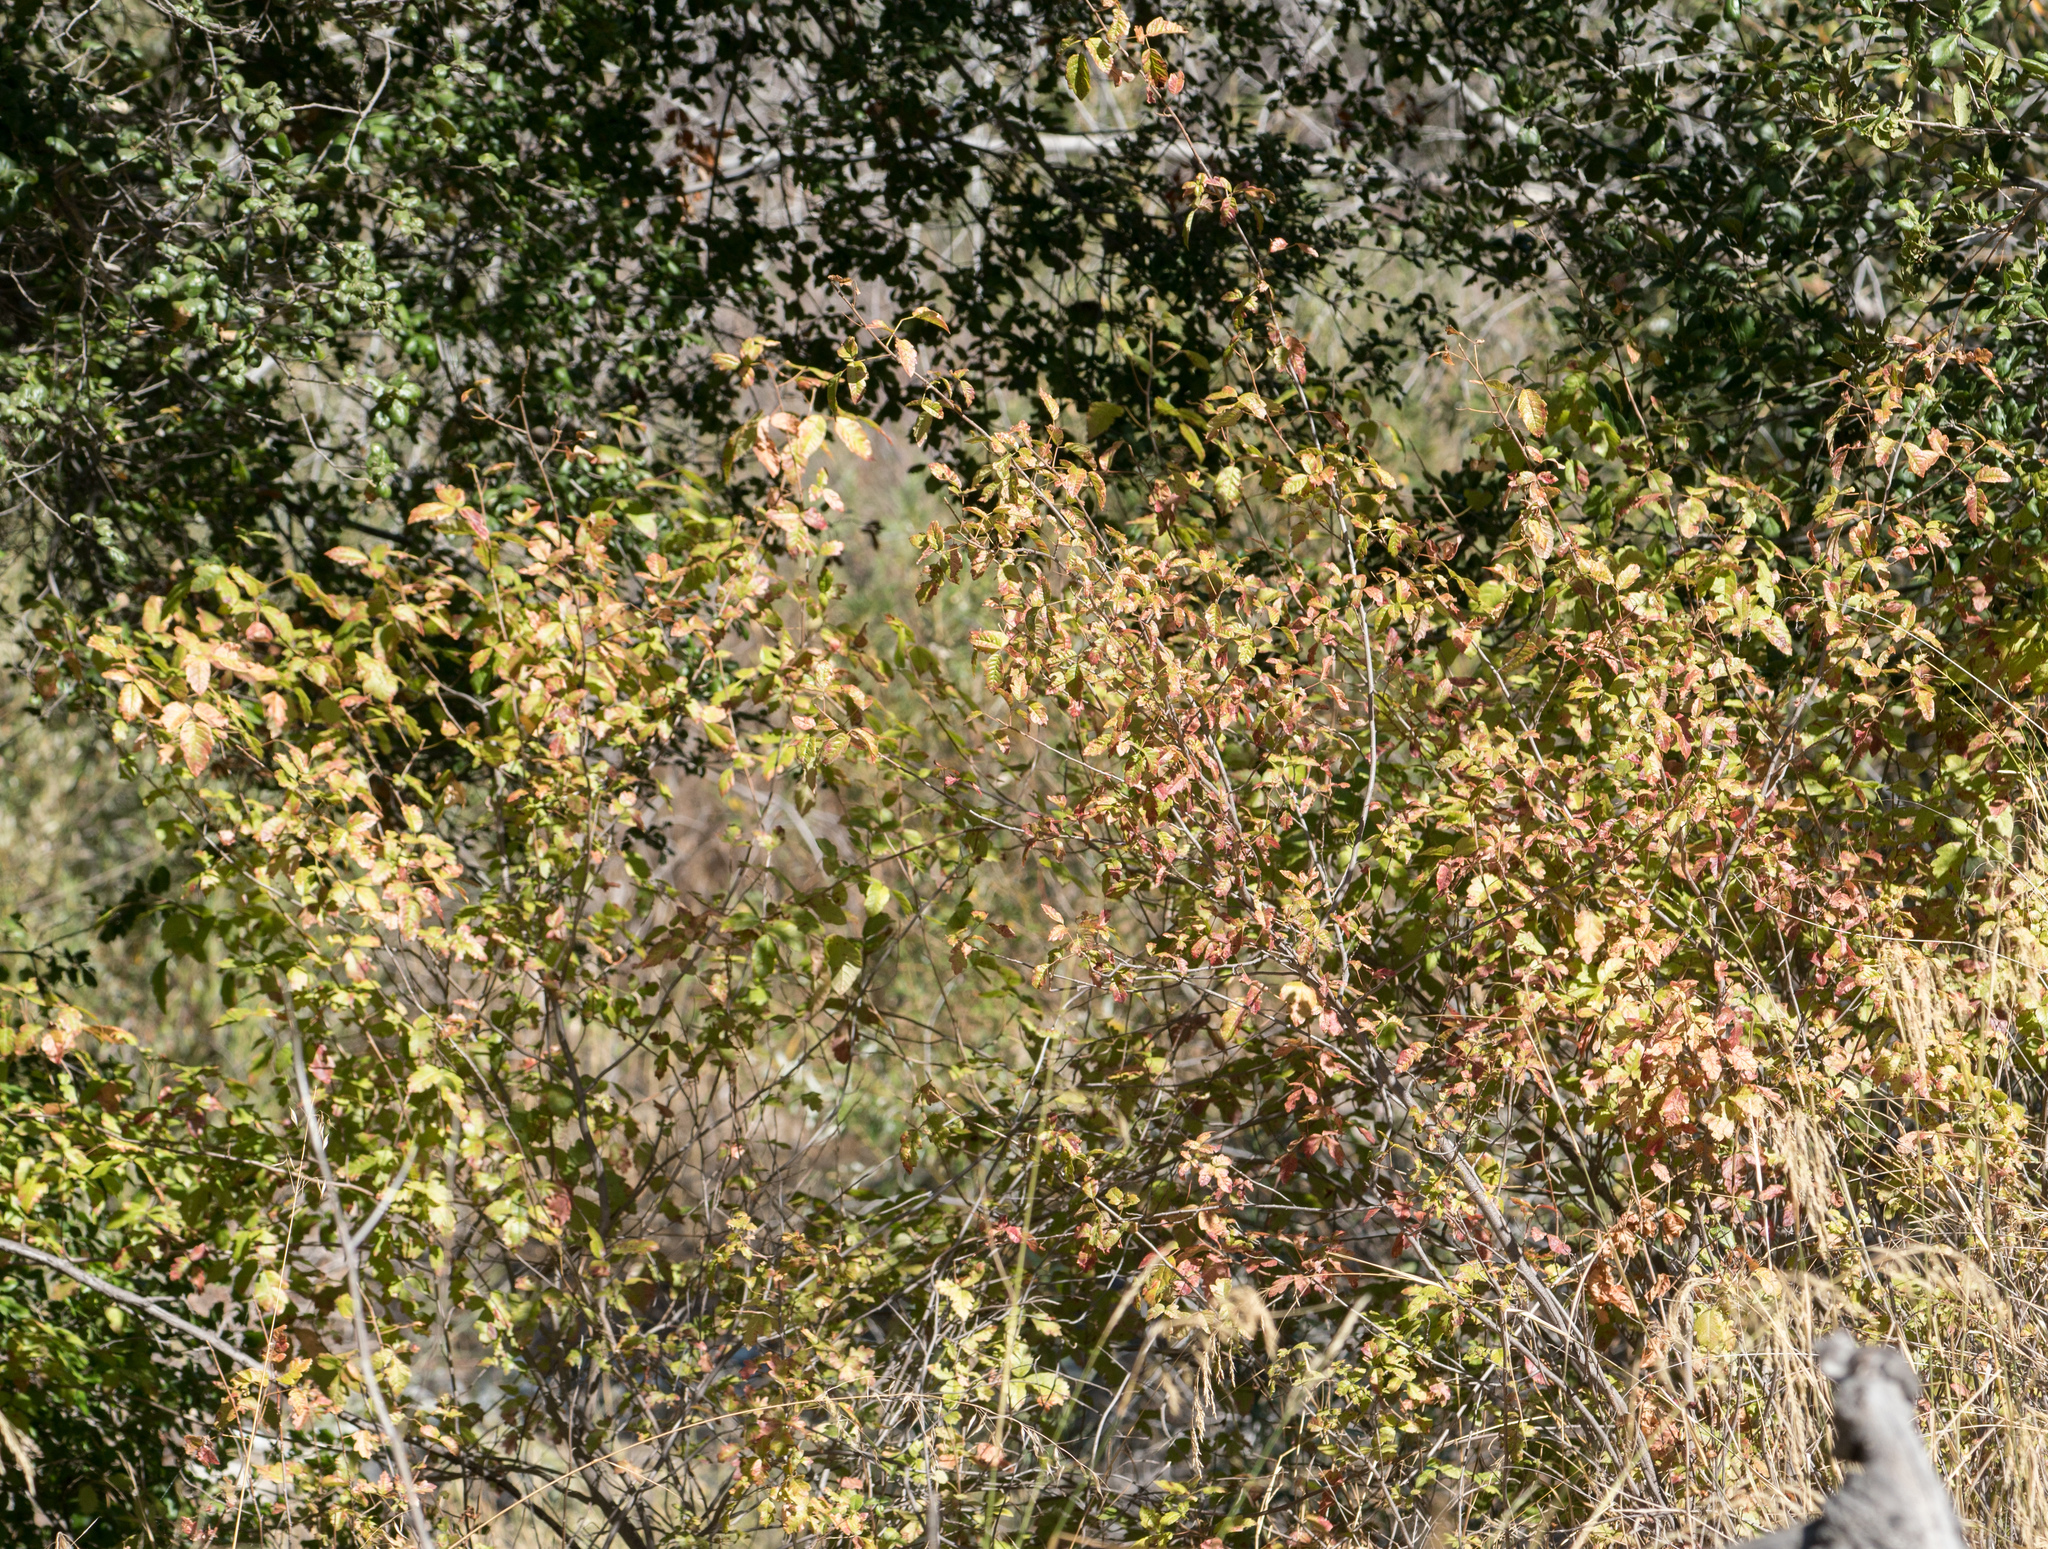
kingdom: Plantae
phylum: Tracheophyta
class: Magnoliopsida
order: Sapindales
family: Anacardiaceae
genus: Toxicodendron
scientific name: Toxicodendron diversilobum
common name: Pacific poison-oak
